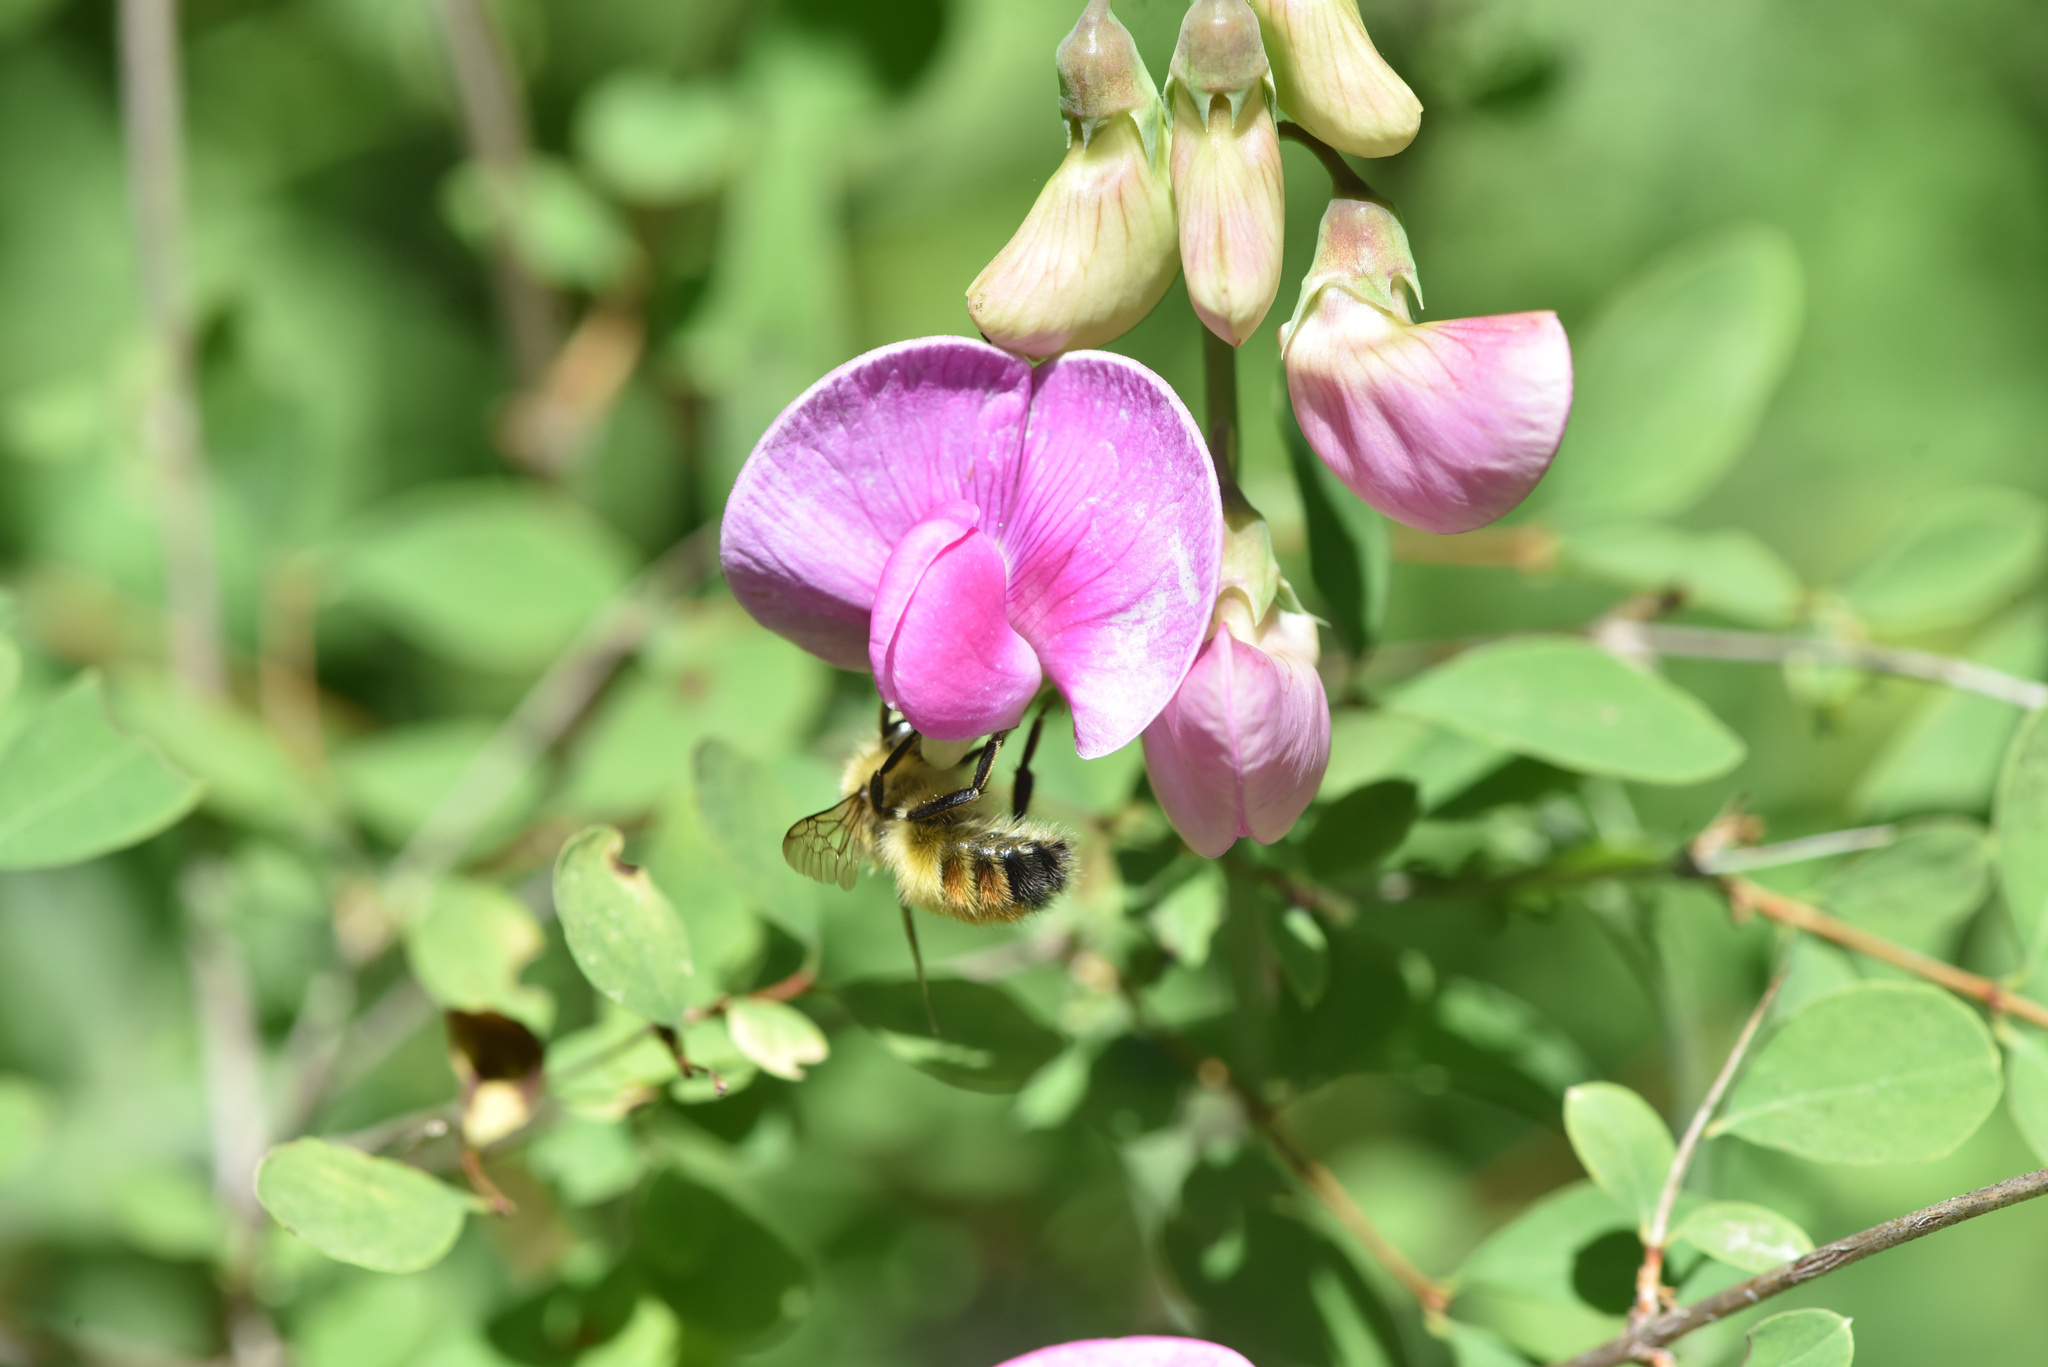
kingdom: Animalia
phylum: Arthropoda
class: Insecta
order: Hymenoptera
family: Apidae
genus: Bombus
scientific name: Bombus flavifrons
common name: Yellow head bumble bee
